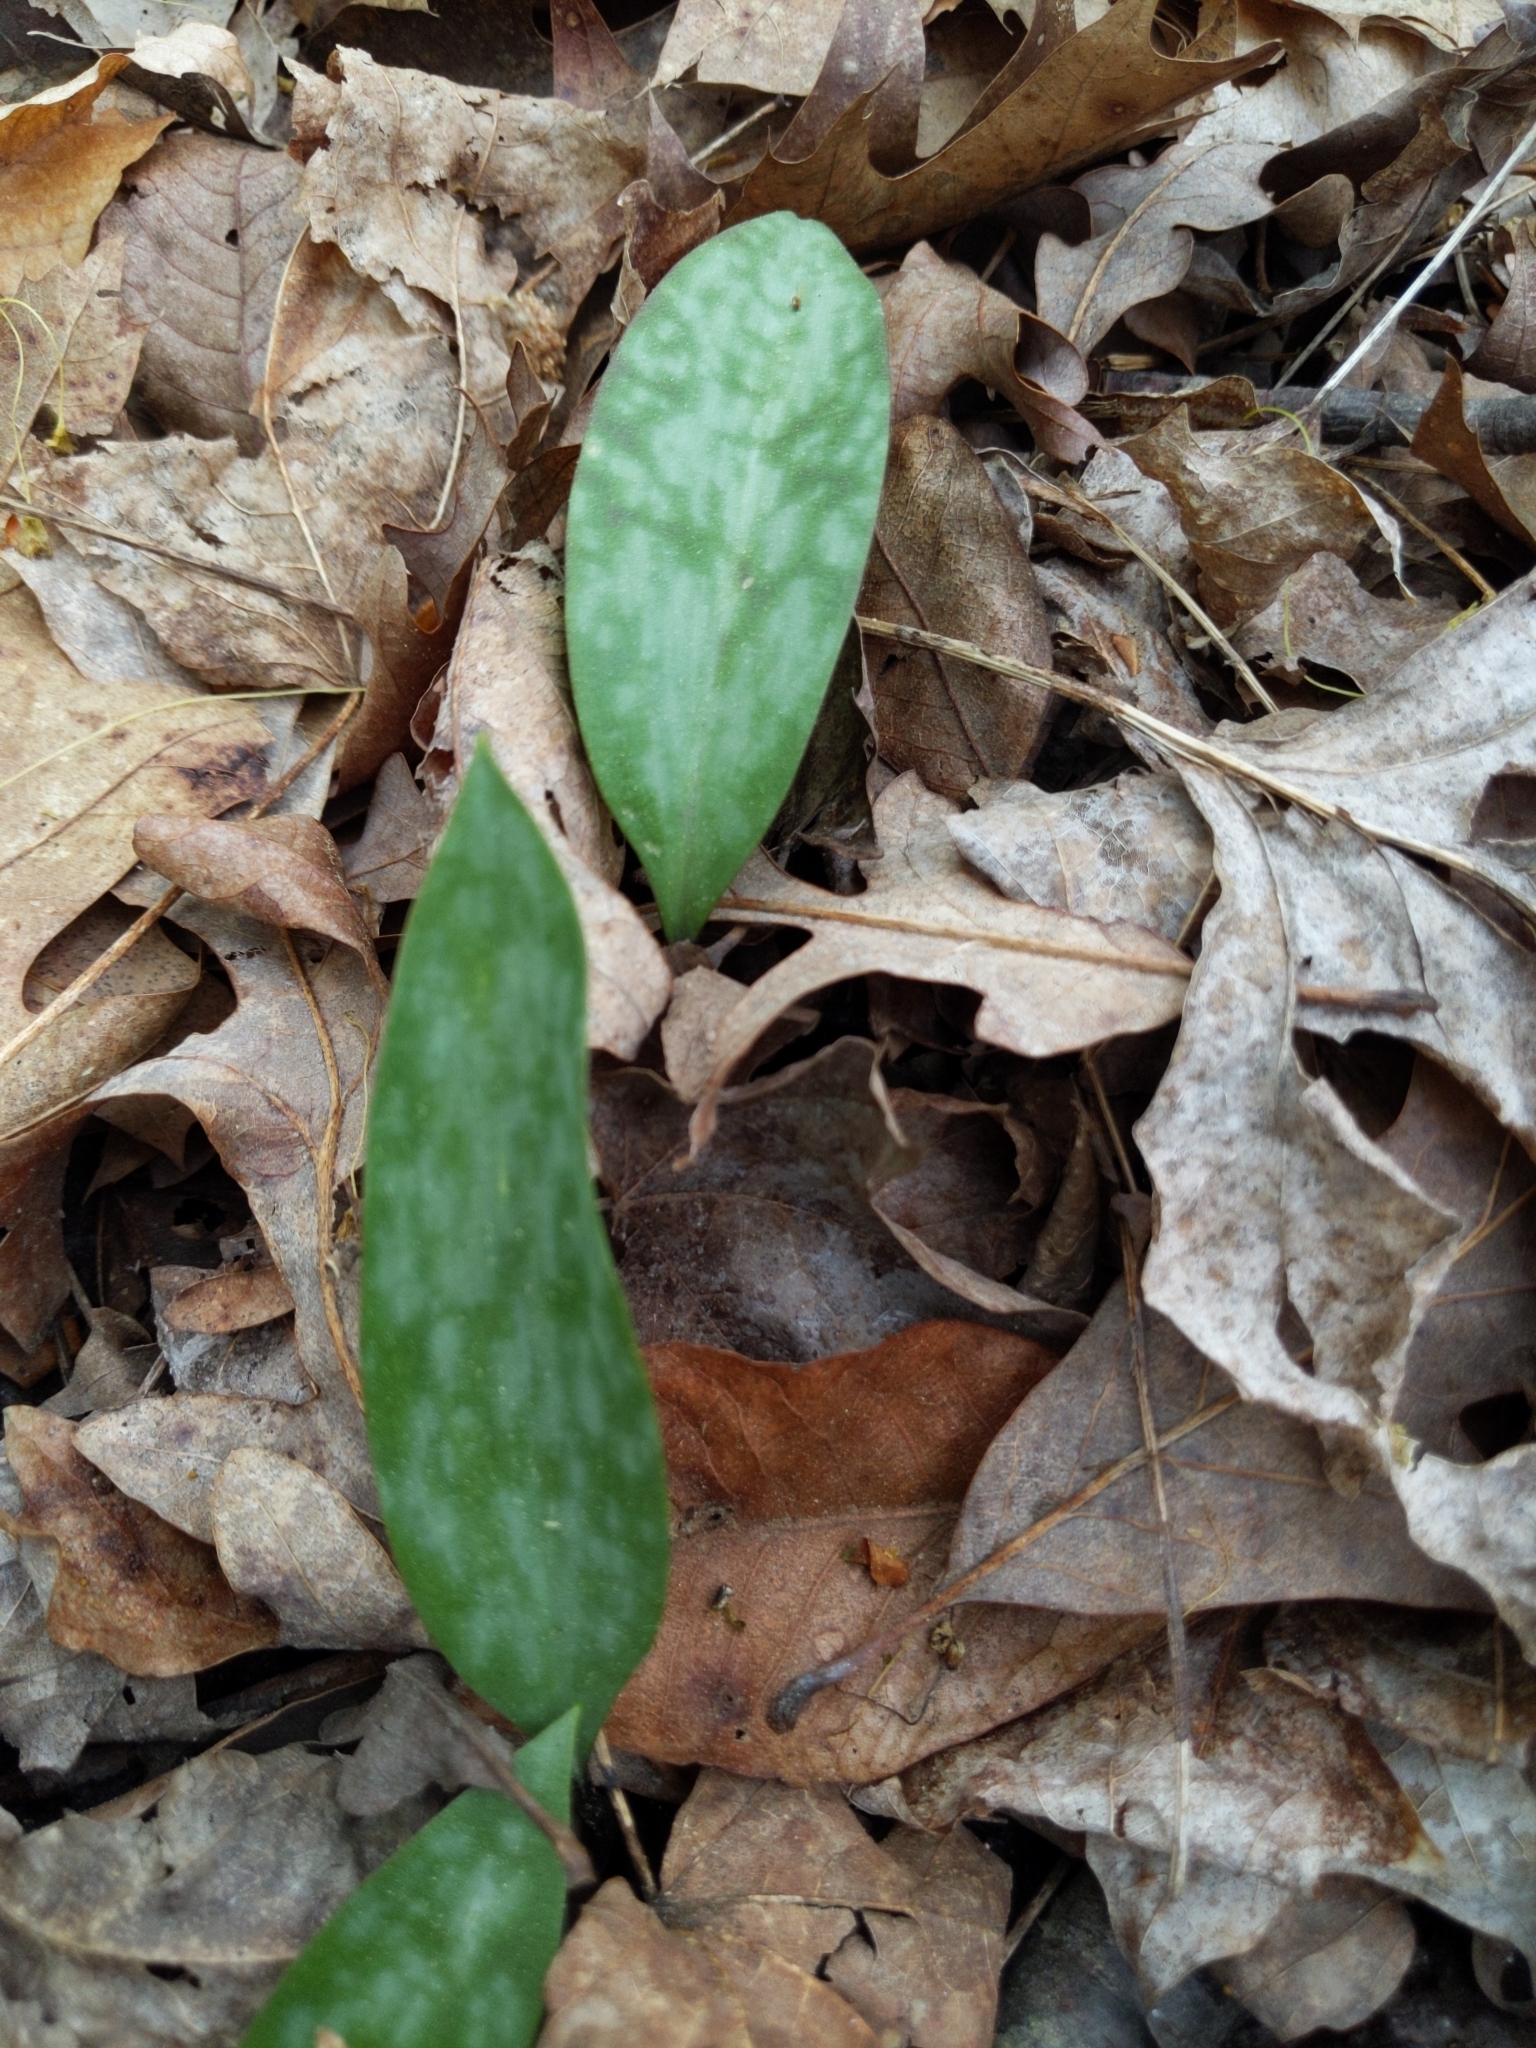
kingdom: Plantae
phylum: Tracheophyta
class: Liliopsida
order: Liliales
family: Liliaceae
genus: Erythronium
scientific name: Erythronium americanum
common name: Yellow adder's-tongue
